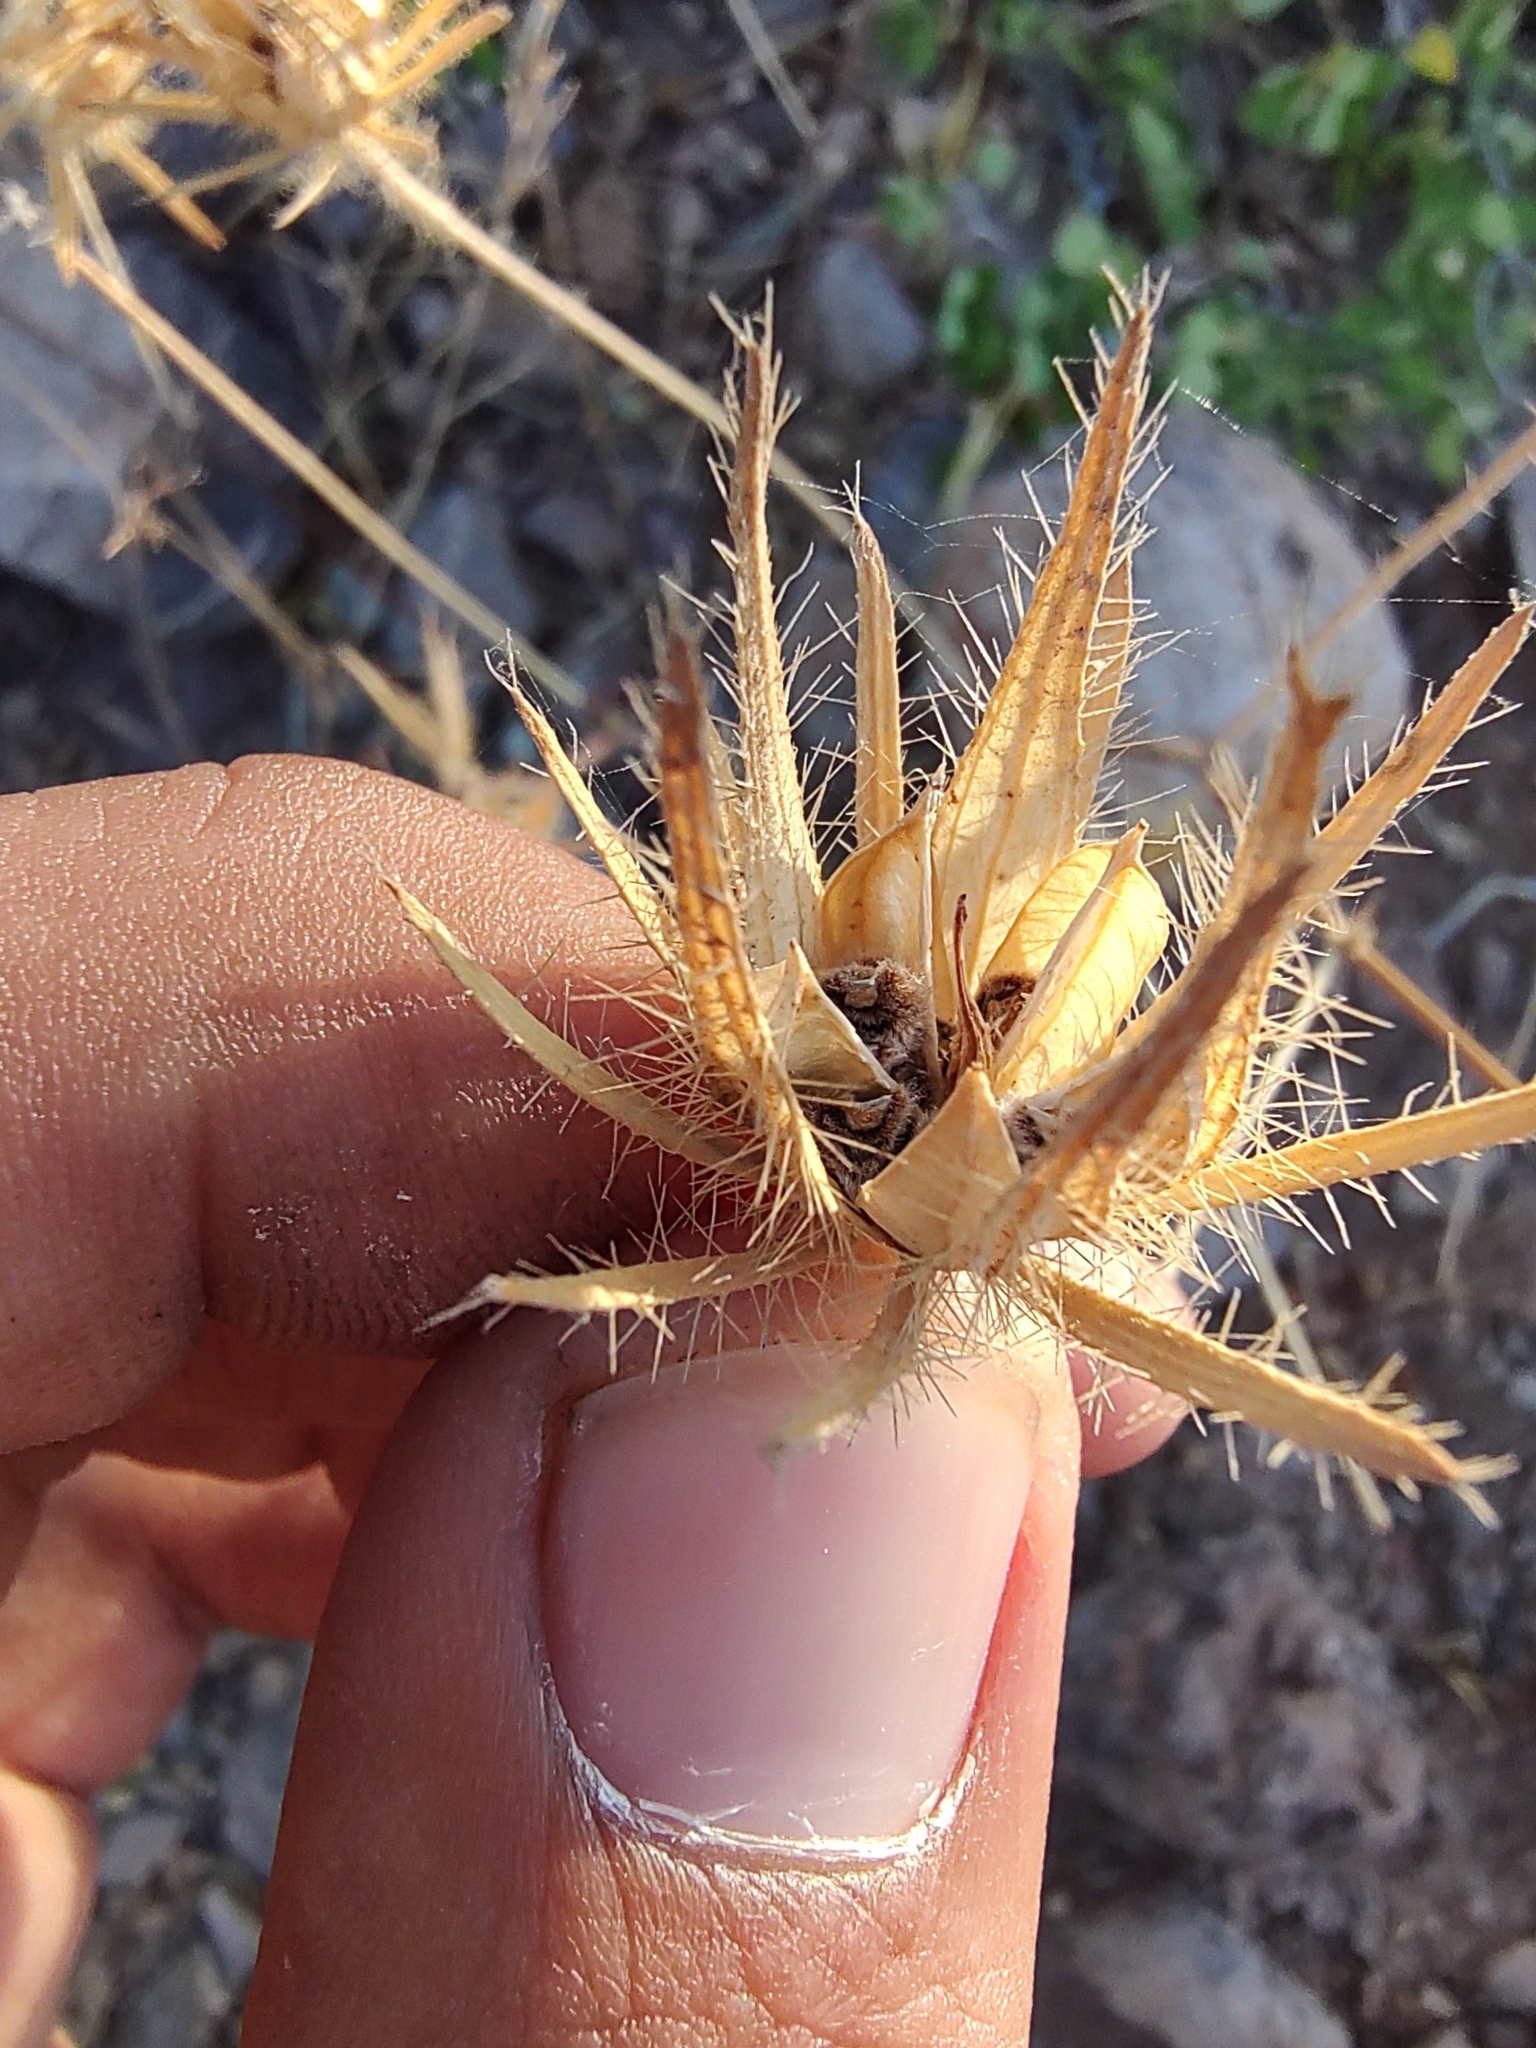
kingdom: Plantae
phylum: Tracheophyta
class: Magnoliopsida
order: Malvales
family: Malvaceae
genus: Hibiscus
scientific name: Hibiscus biseptus
